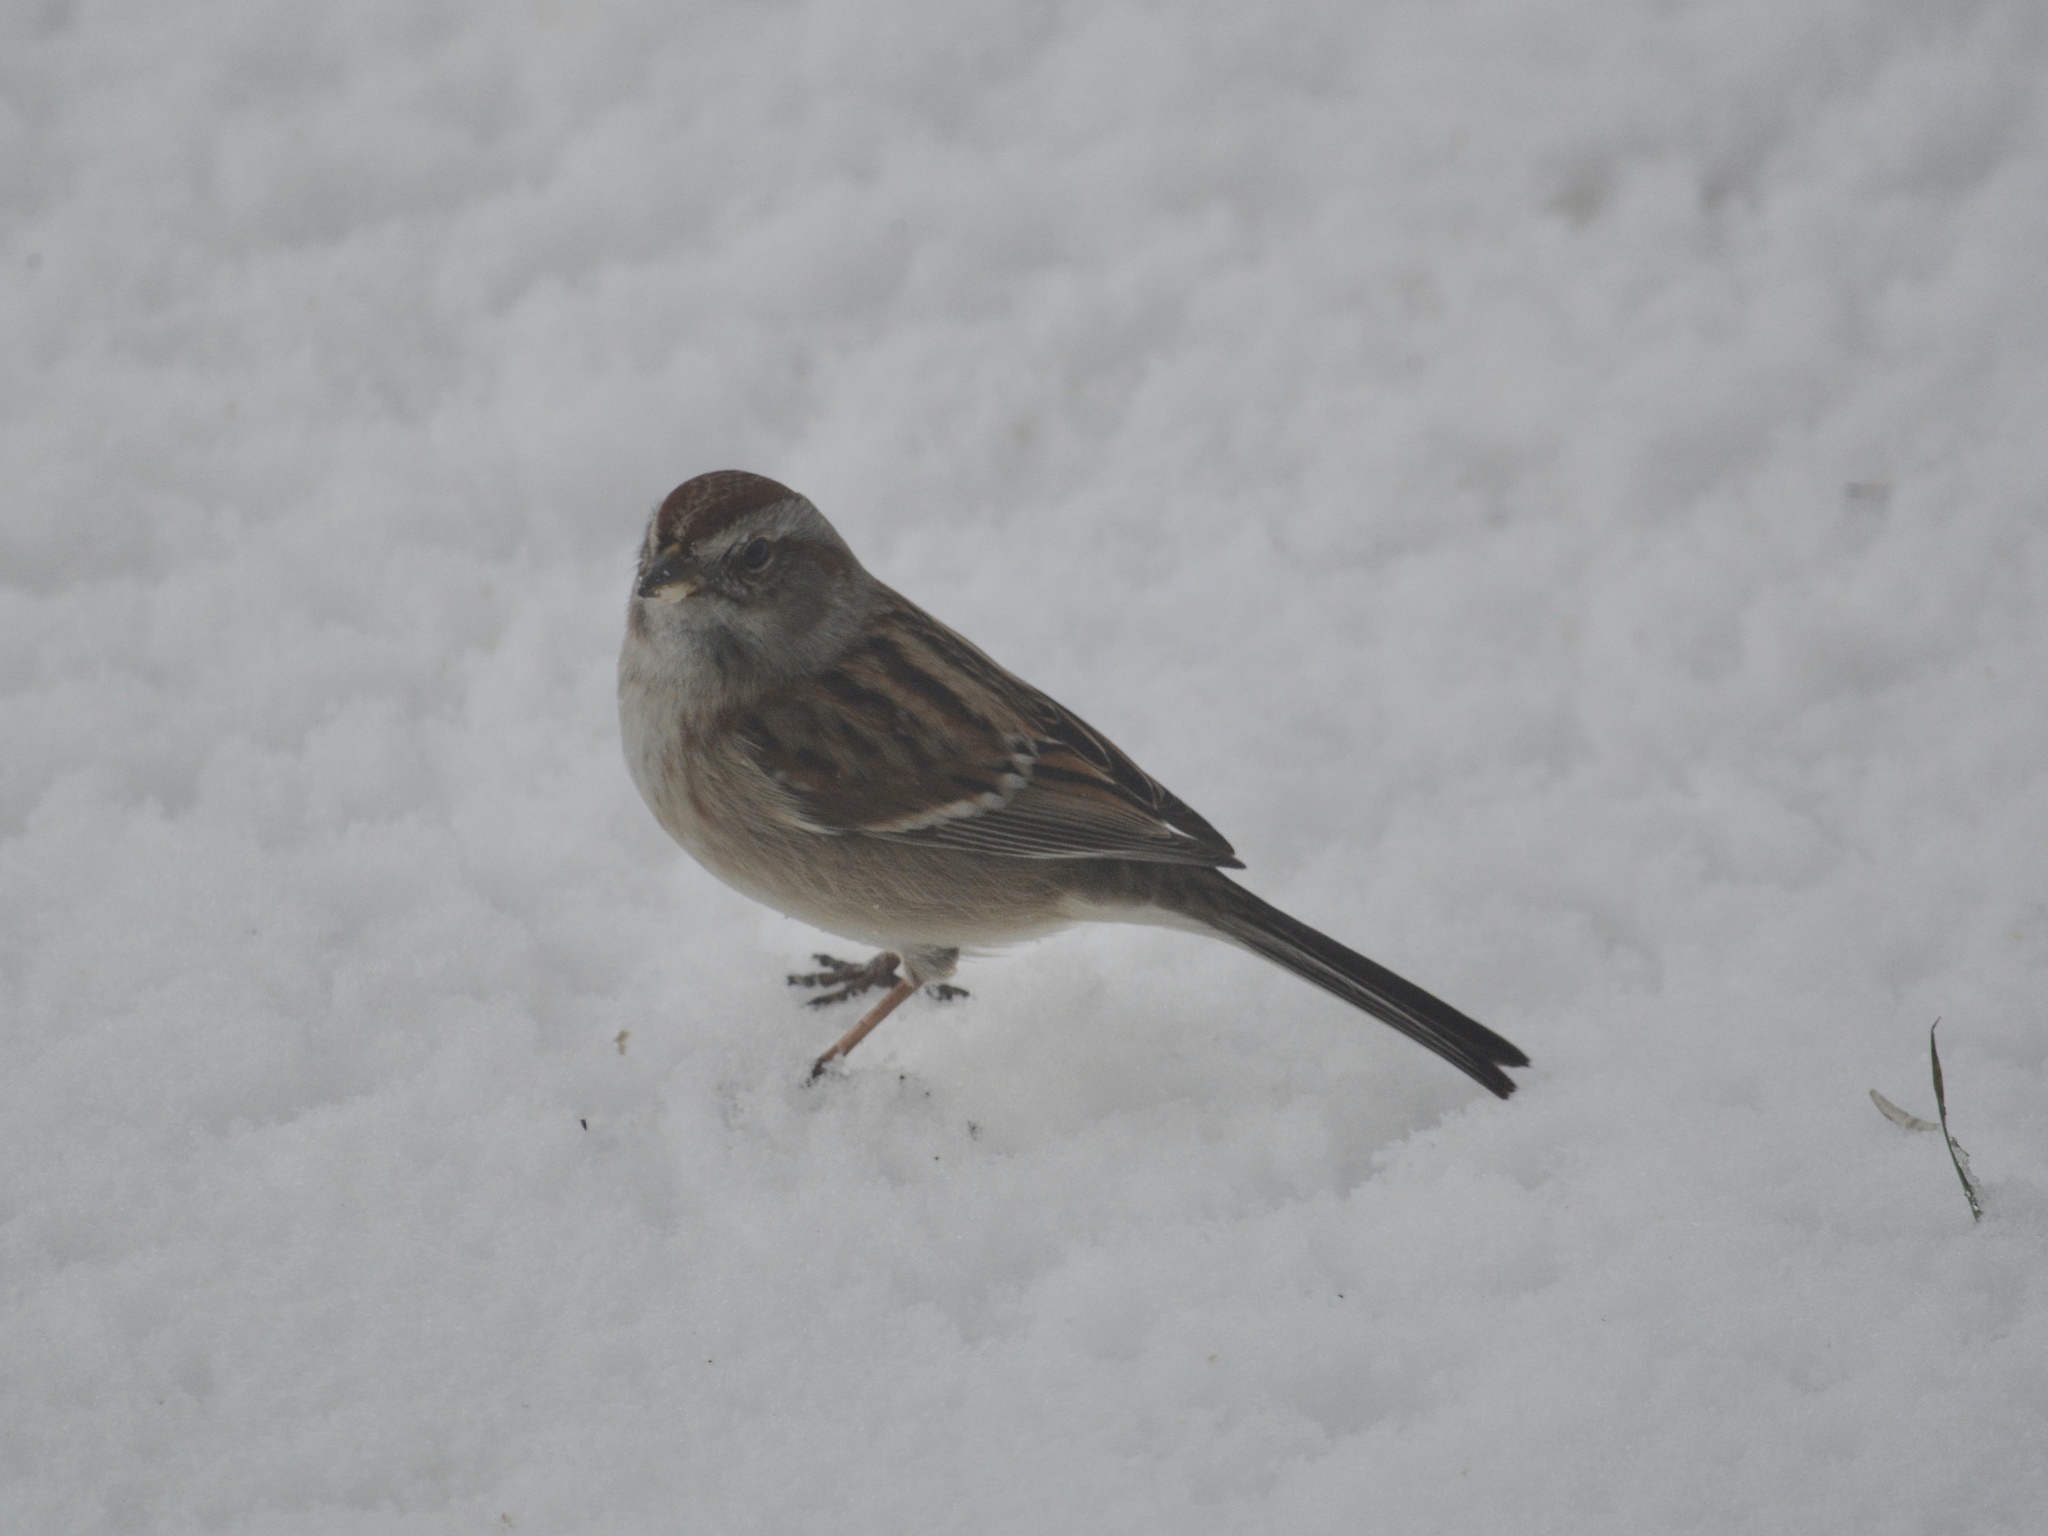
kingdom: Animalia
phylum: Chordata
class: Aves
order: Passeriformes
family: Passerellidae
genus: Spizelloides
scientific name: Spizelloides arborea
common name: American tree sparrow
